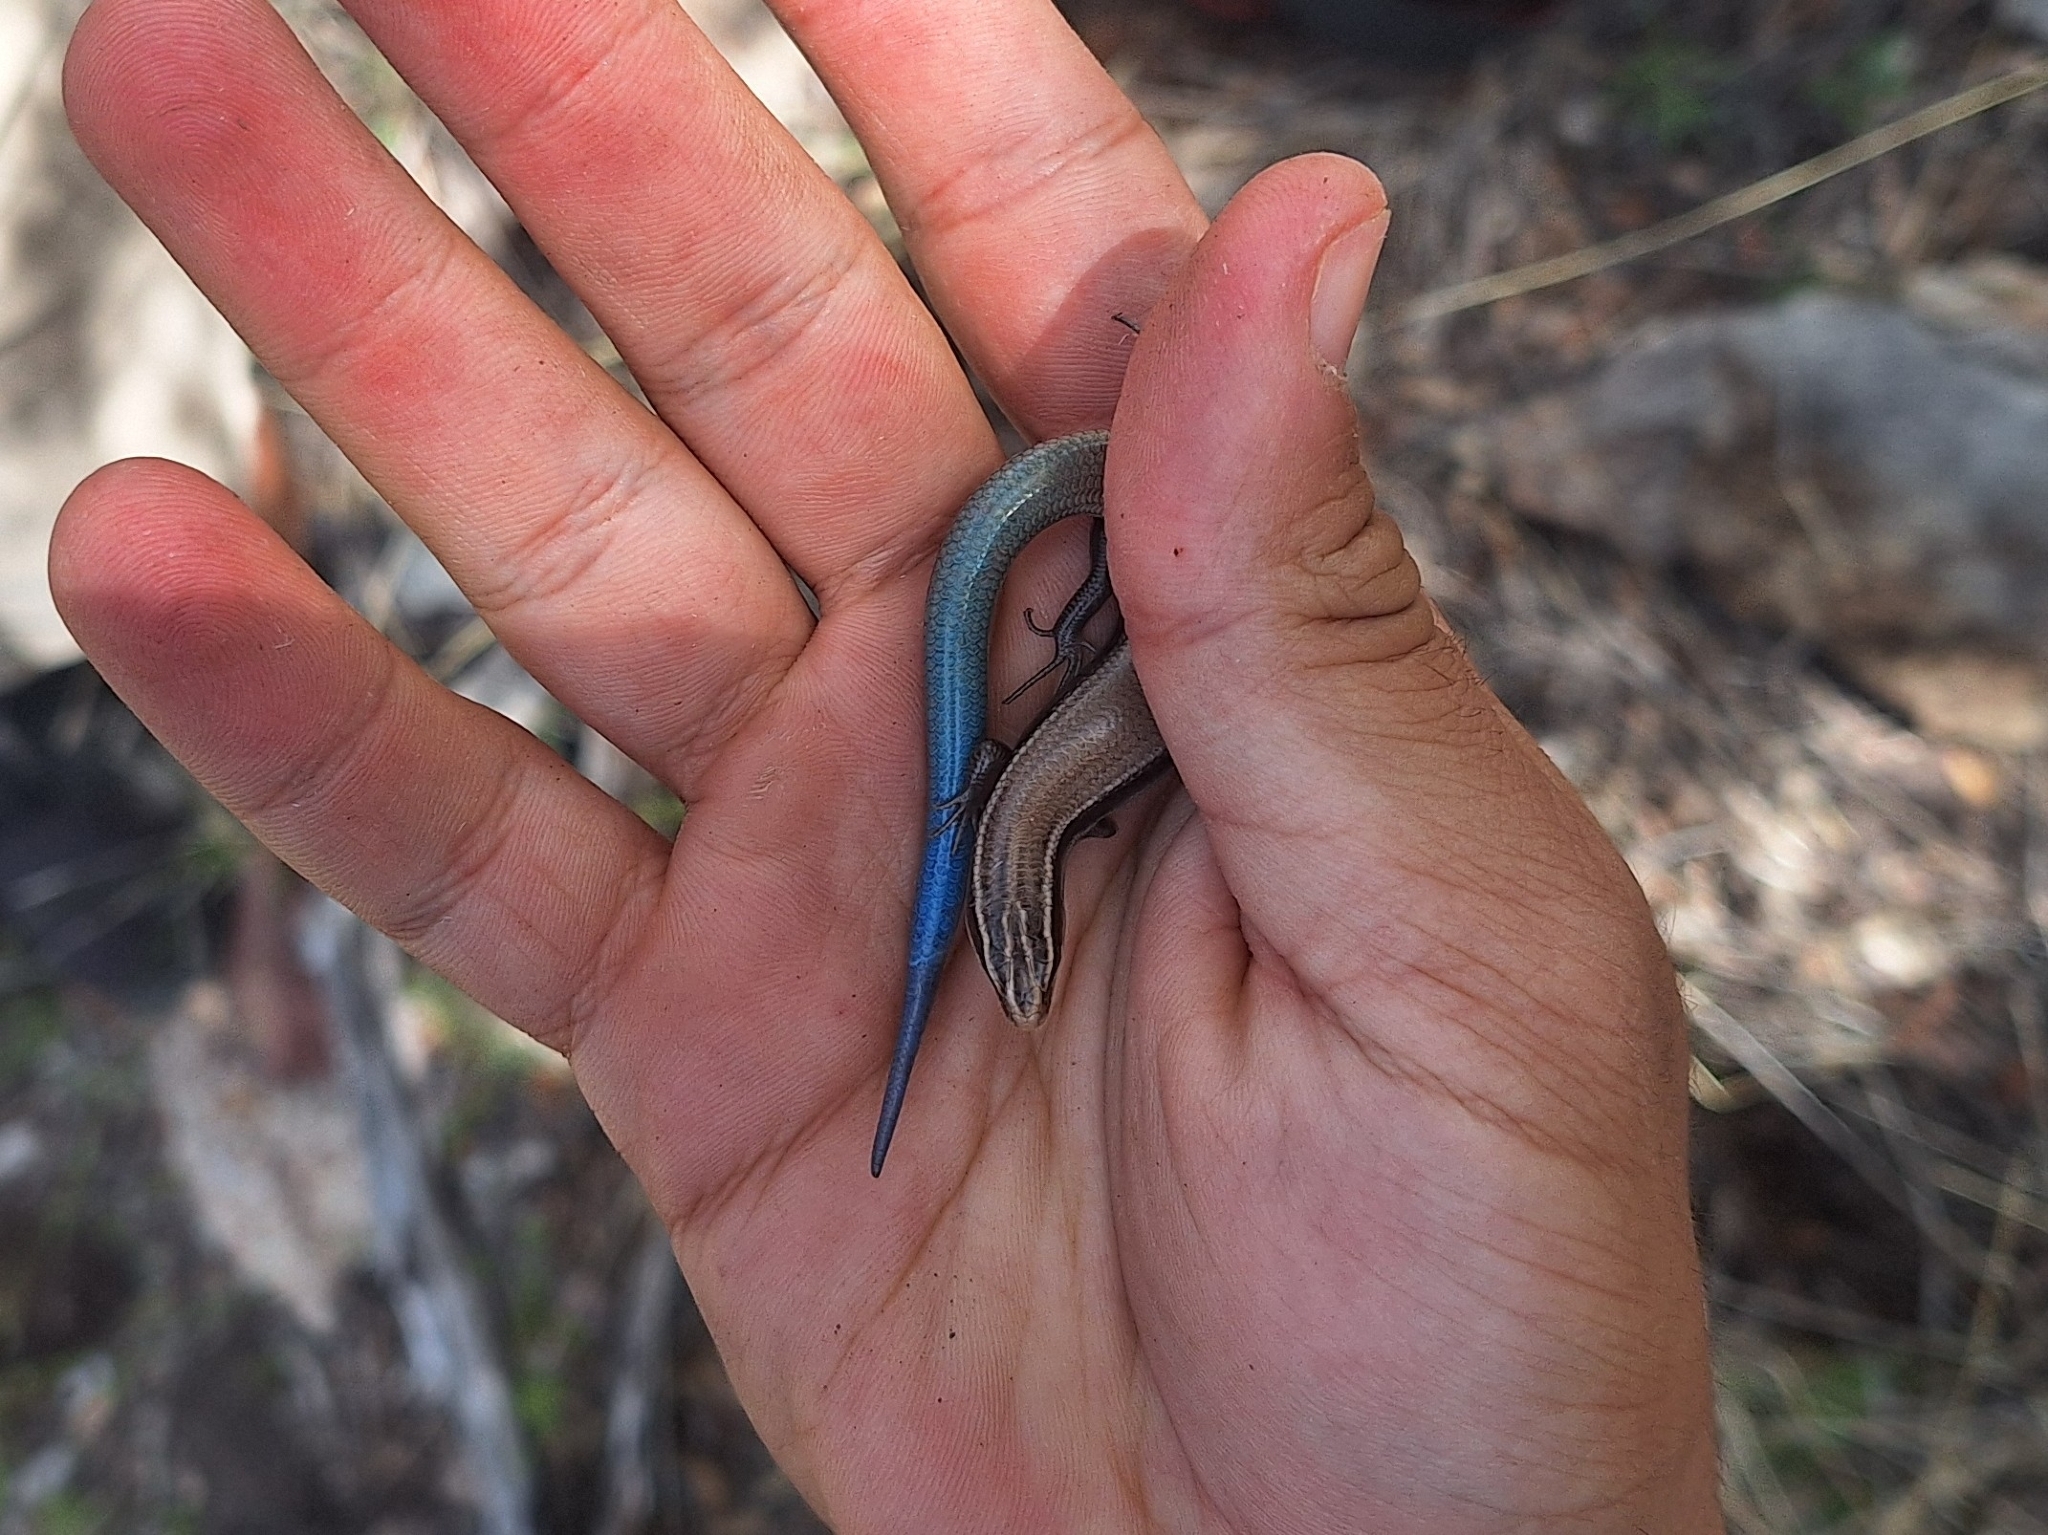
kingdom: Animalia
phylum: Chordata
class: Squamata
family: Scincidae
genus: Plestiodon
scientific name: Plestiodon callicephalus
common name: Mountain skink
